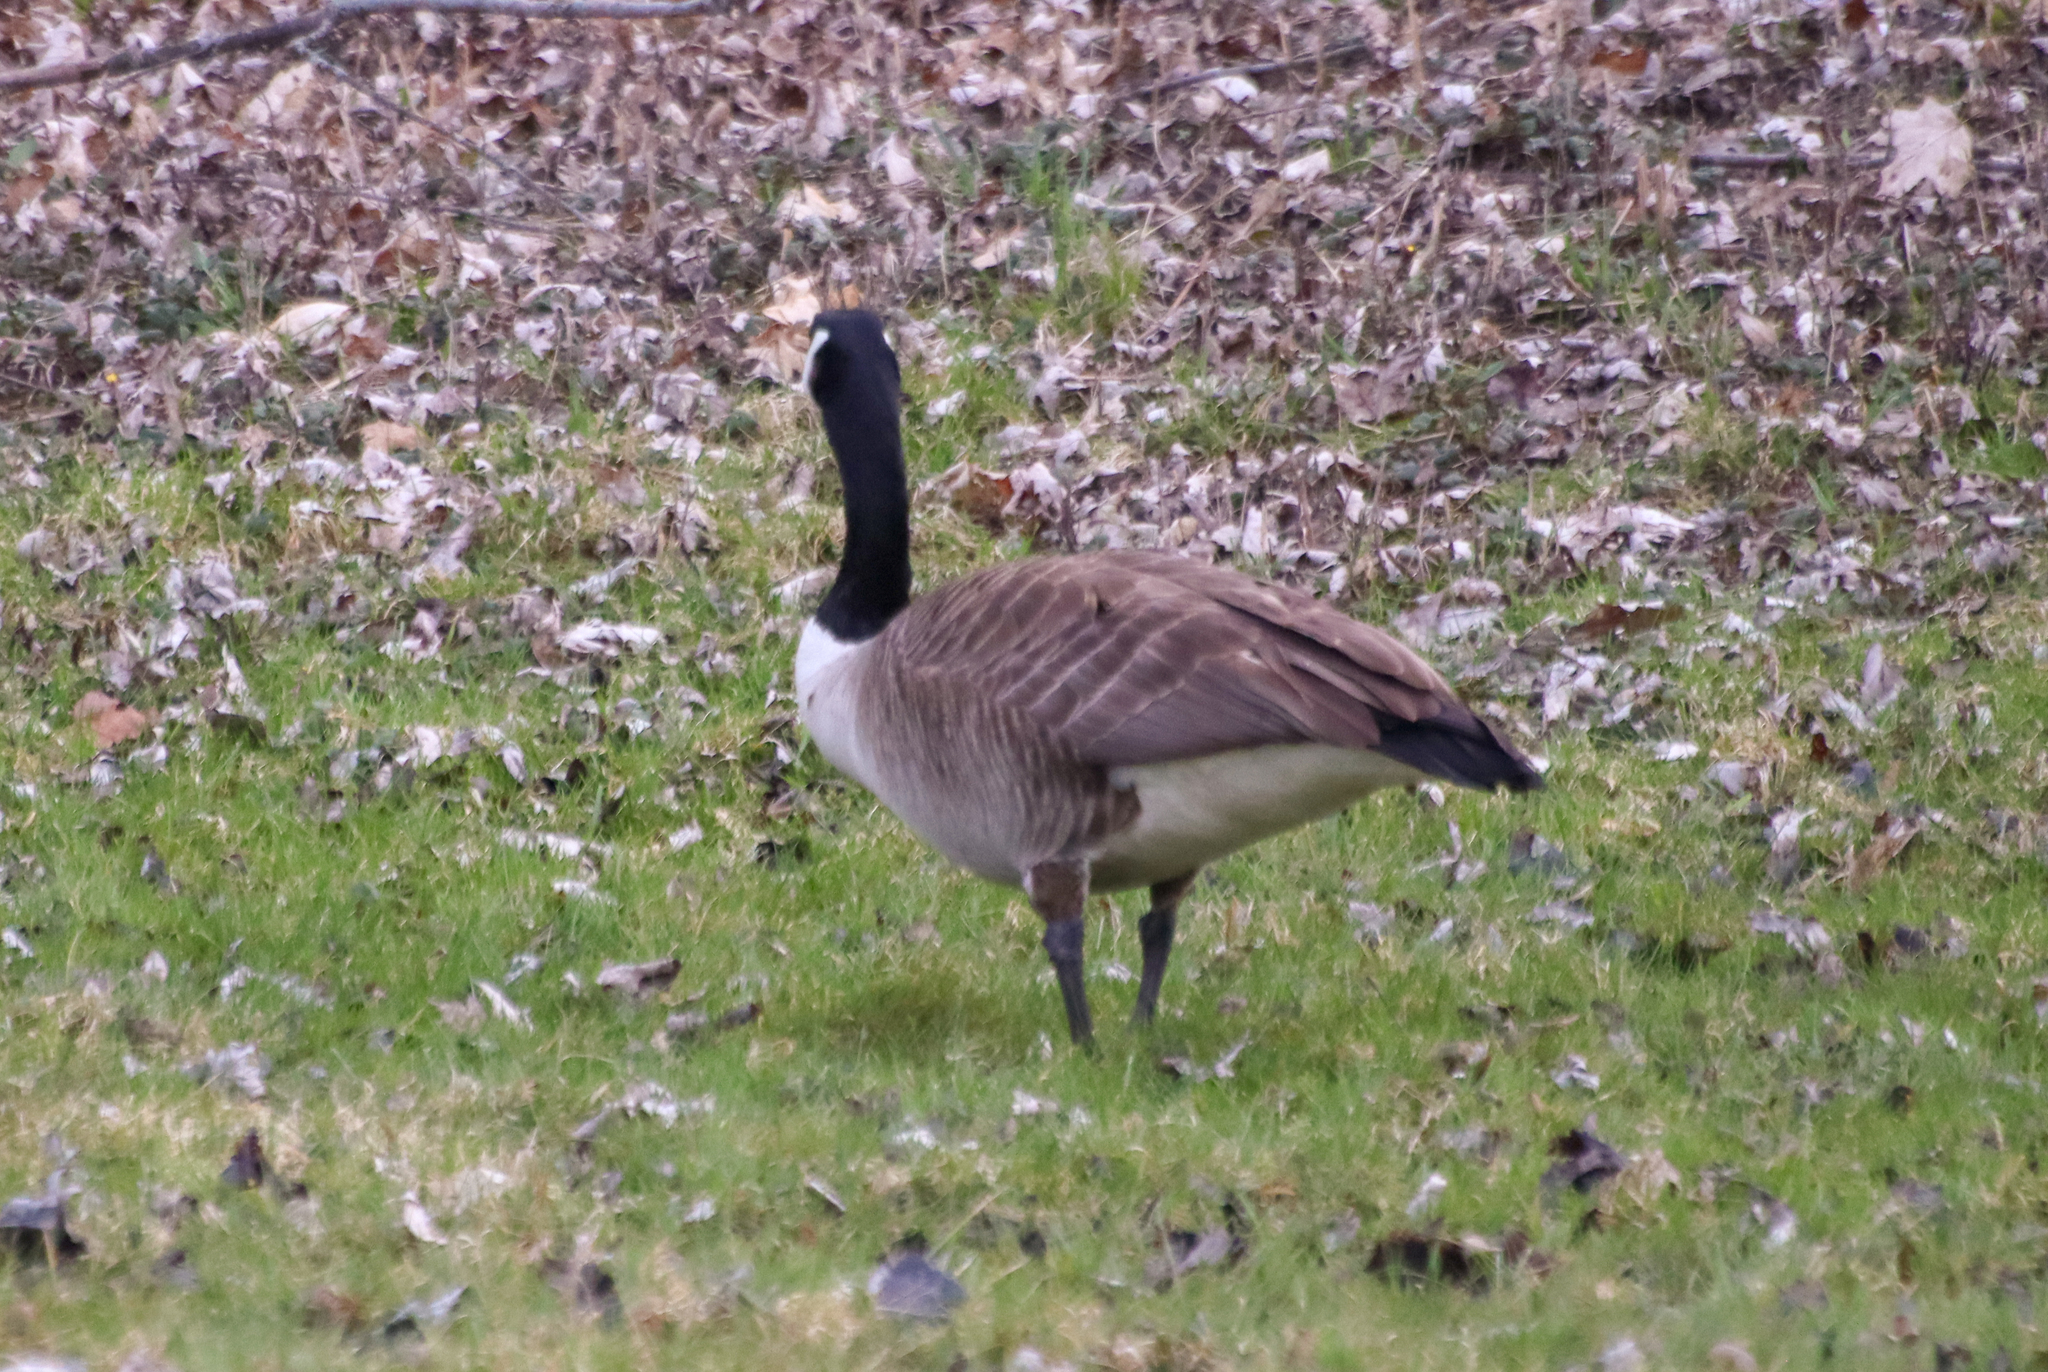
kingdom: Animalia
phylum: Chordata
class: Aves
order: Anseriformes
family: Anatidae
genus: Branta
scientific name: Branta canadensis
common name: Canada goose
